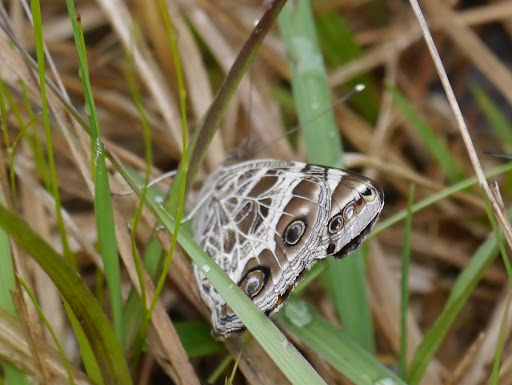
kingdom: Animalia
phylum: Arthropoda
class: Insecta
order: Lepidoptera
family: Nymphalidae
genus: Vanessa
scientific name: Vanessa virginiensis
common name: American lady
